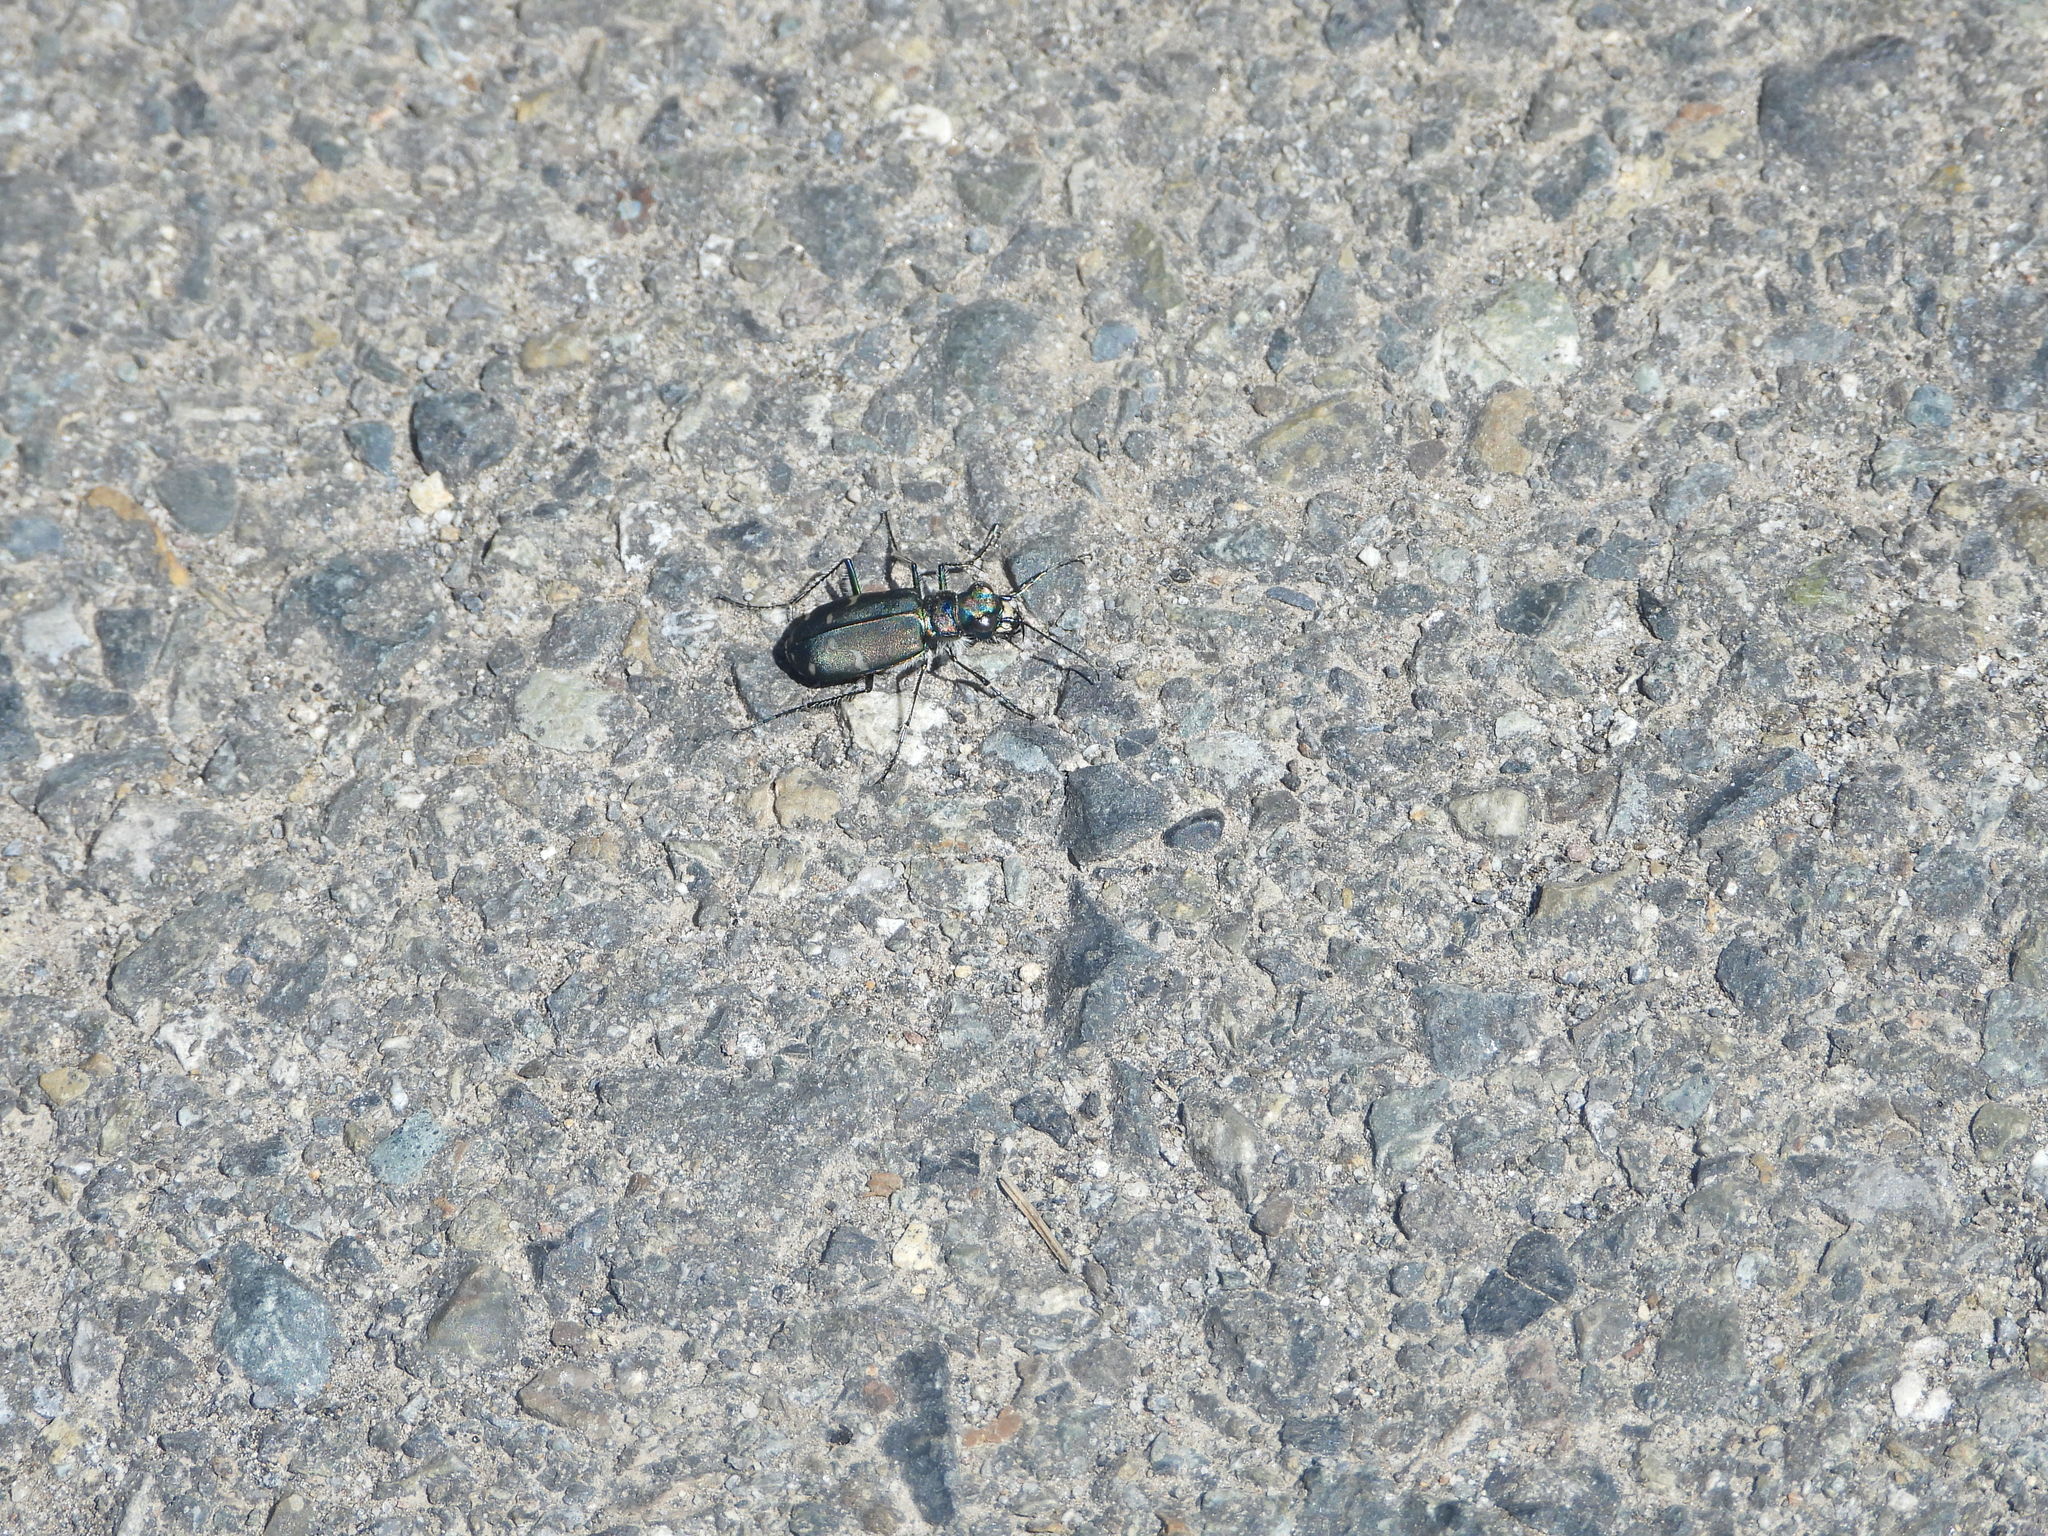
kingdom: Animalia
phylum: Arthropoda
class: Insecta
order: Coleoptera
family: Carabidae
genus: Cicindela
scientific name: Cicindela depressula
